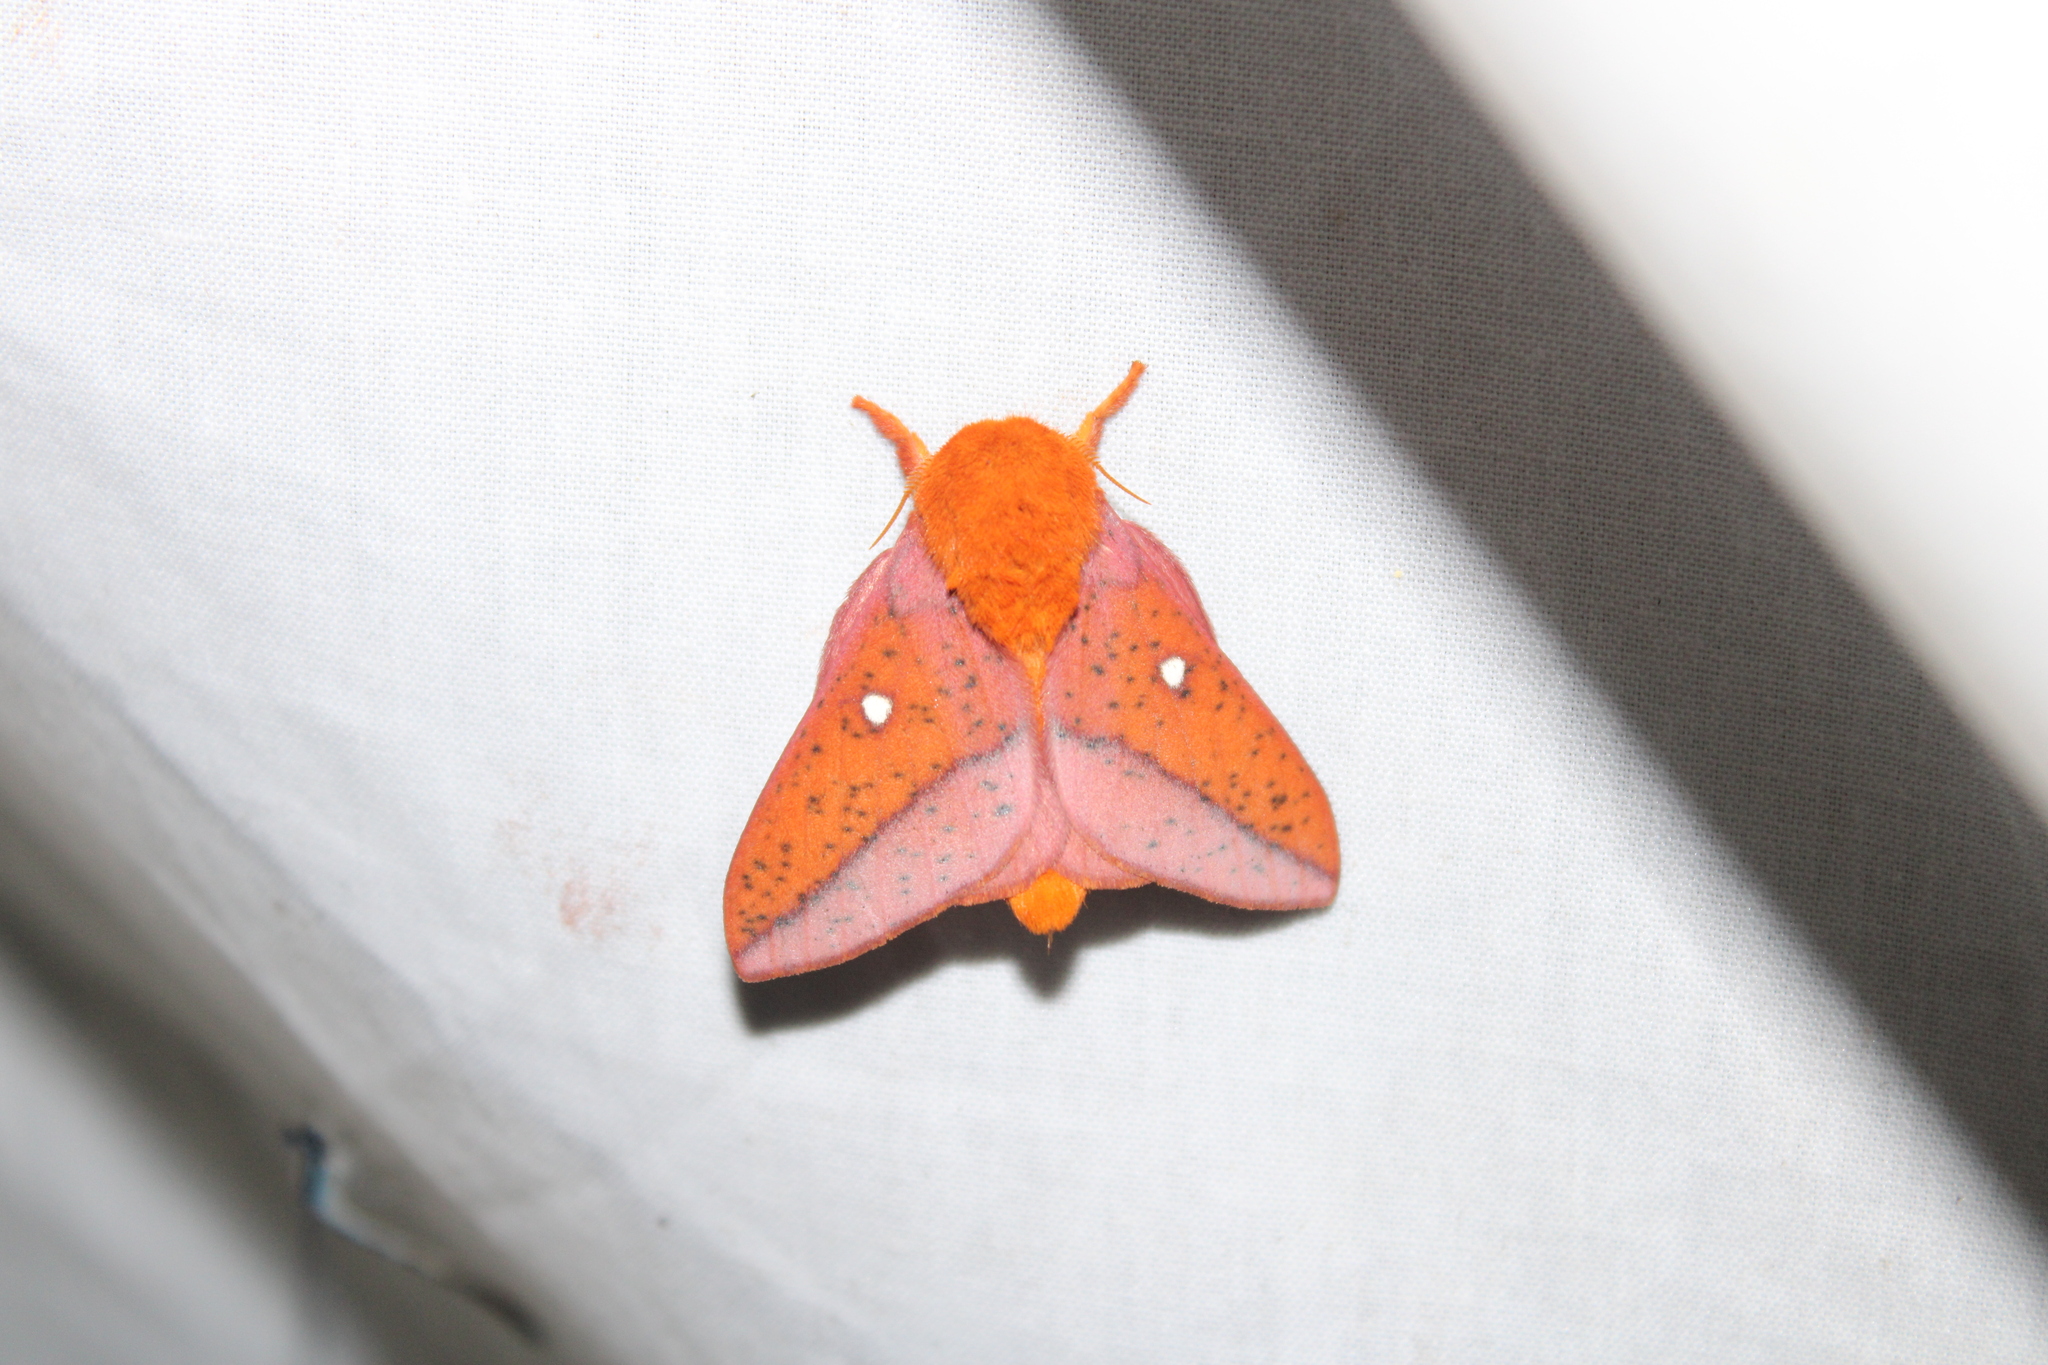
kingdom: Animalia
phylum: Arthropoda
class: Insecta
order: Lepidoptera
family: Saturniidae
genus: Anisota
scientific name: Anisota stigma
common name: Spiny oakworm moth
